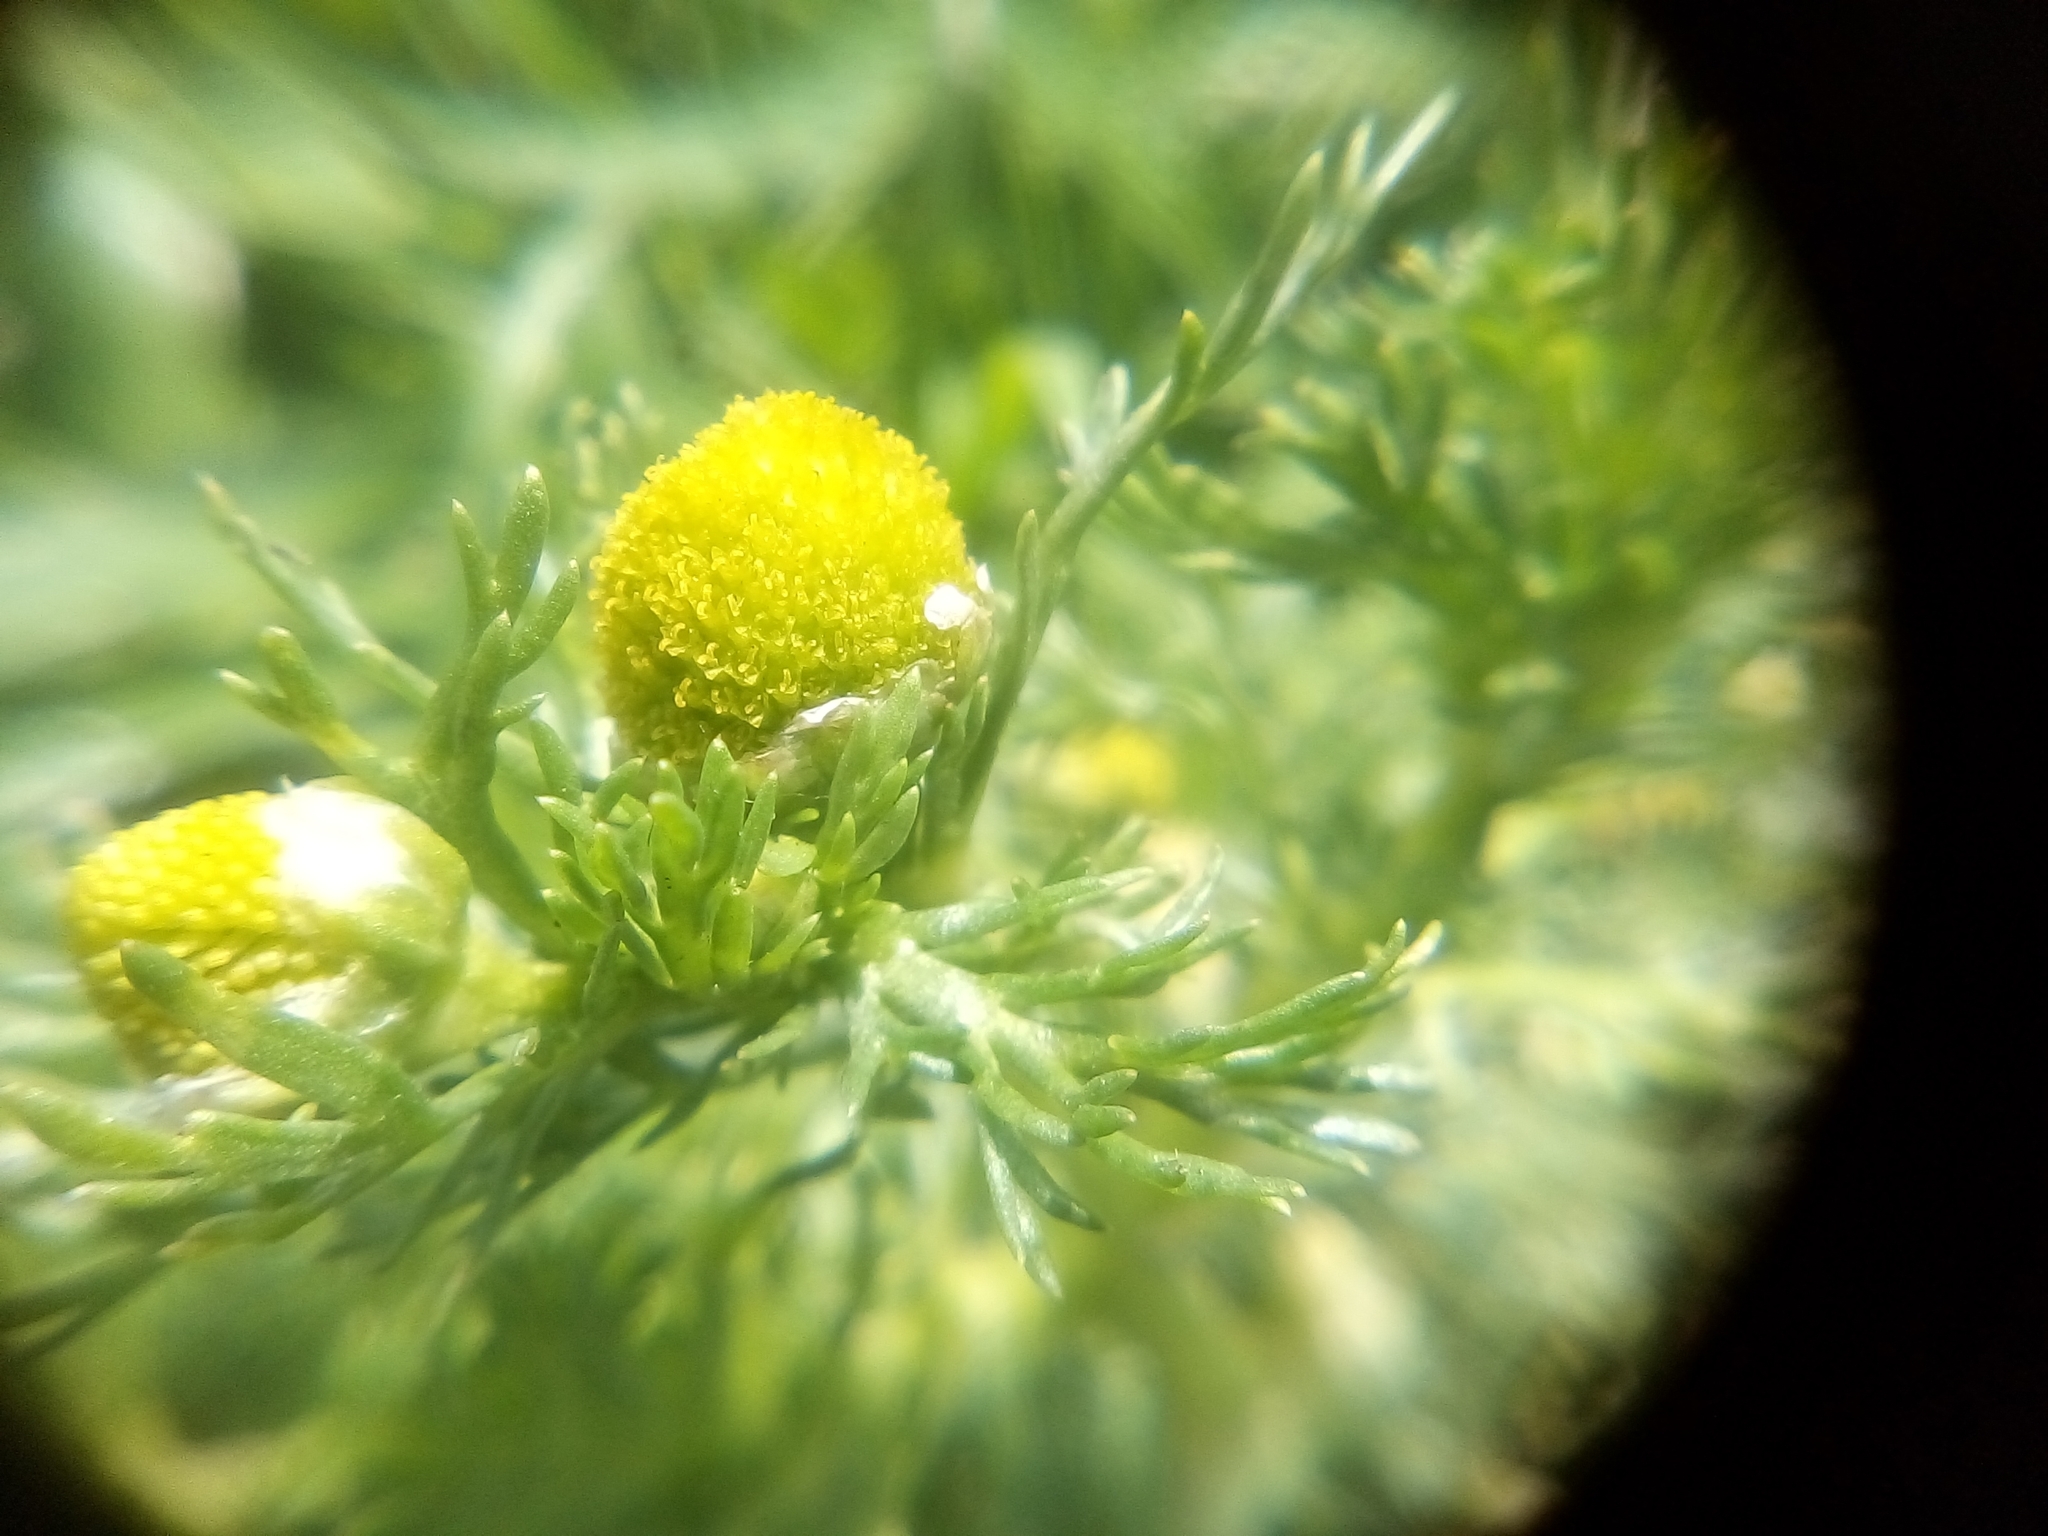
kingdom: Plantae
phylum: Tracheophyta
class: Magnoliopsida
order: Asterales
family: Asteraceae
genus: Matricaria
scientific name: Matricaria discoidea
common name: Disc mayweed
